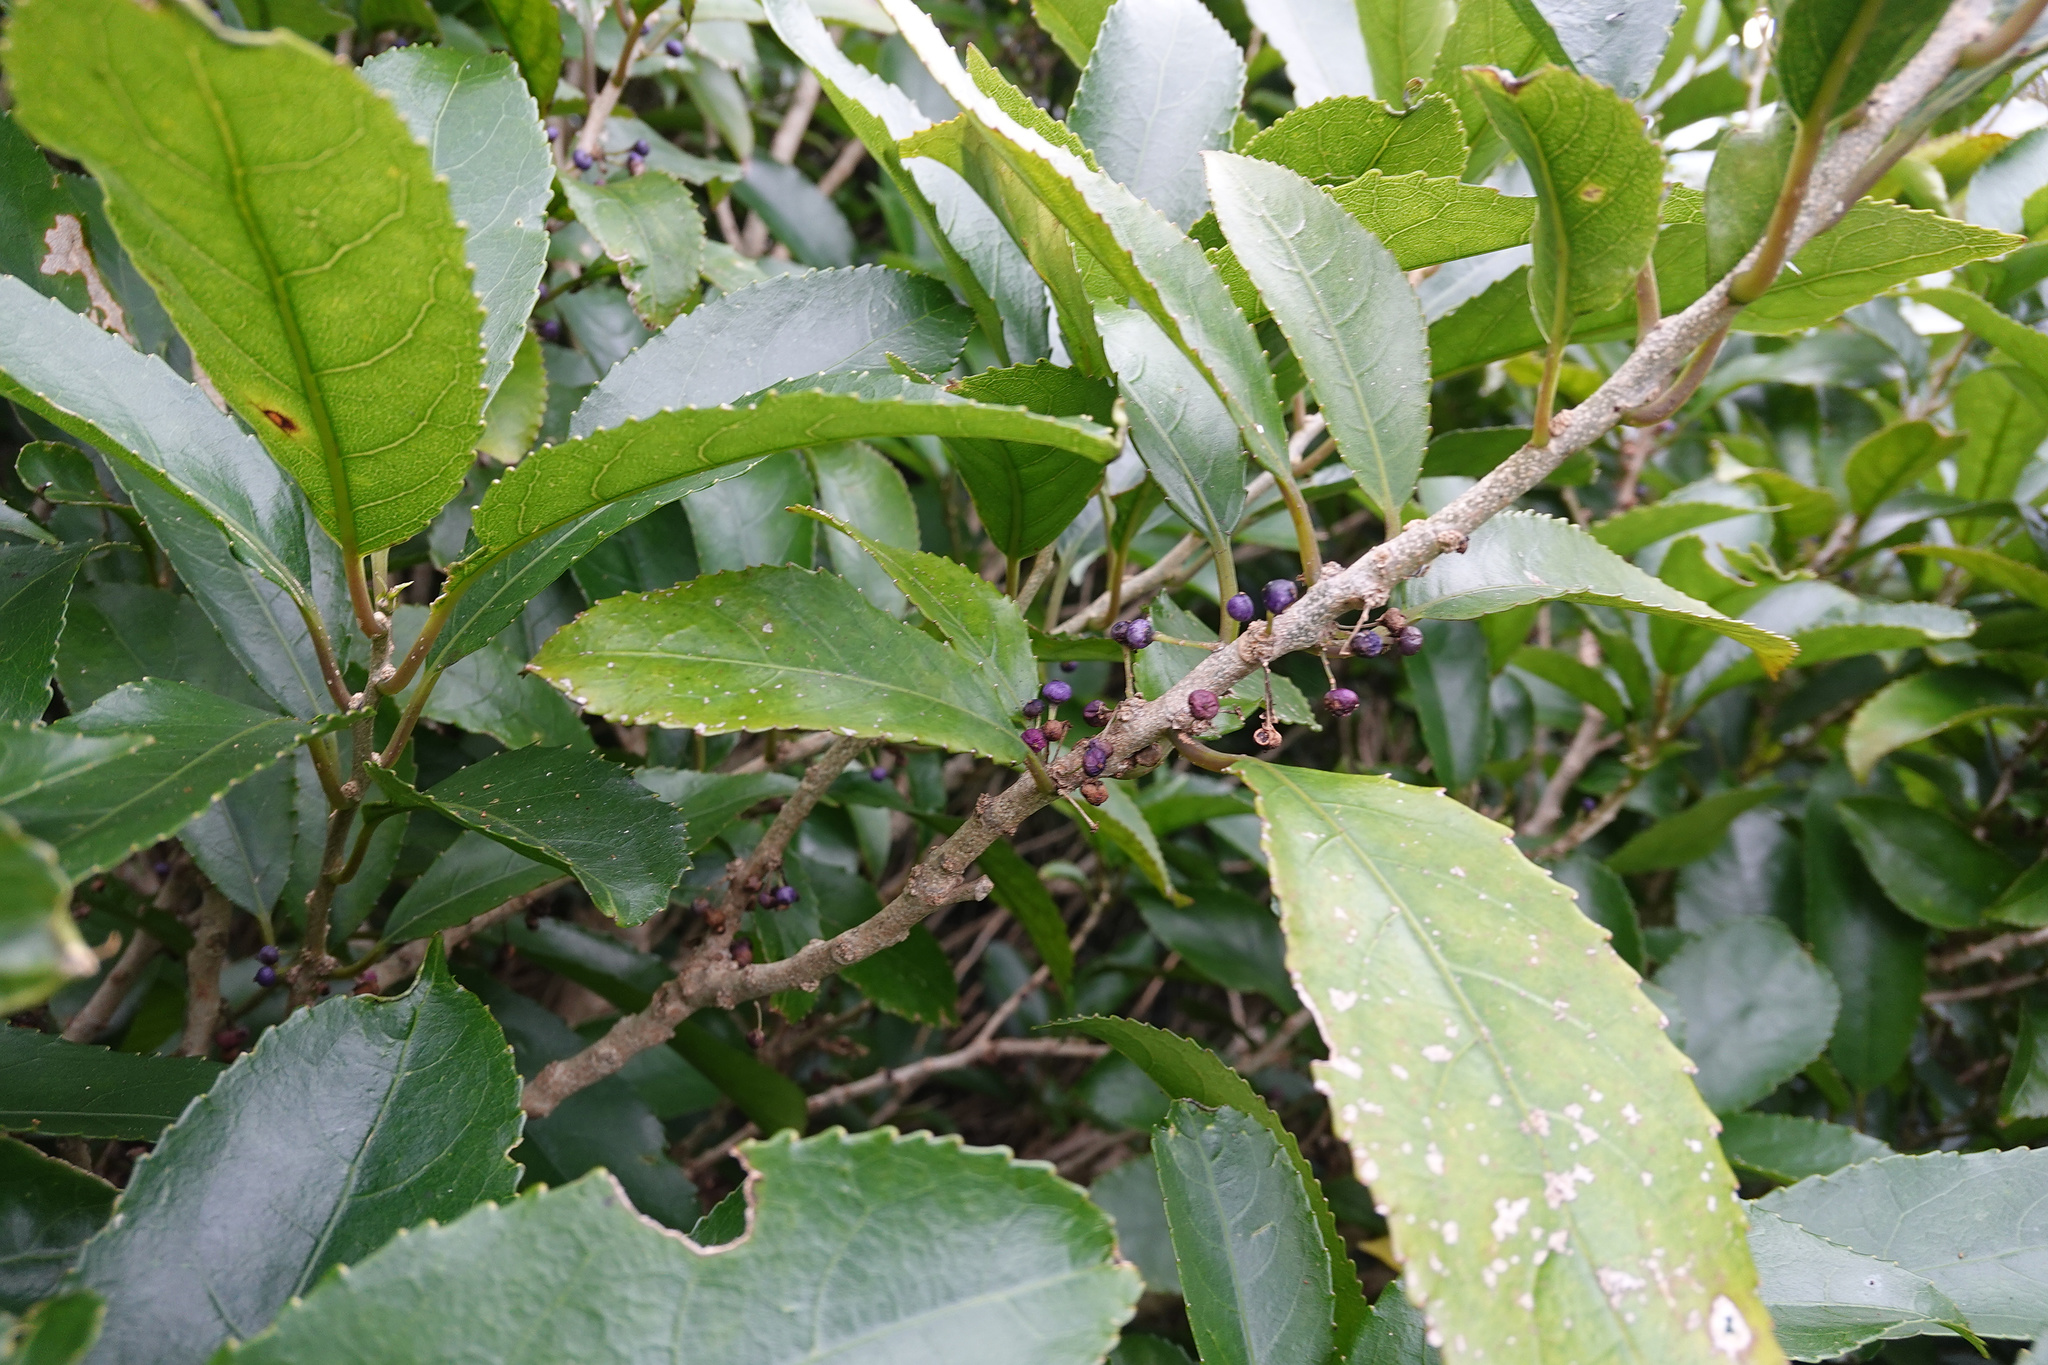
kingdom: Plantae
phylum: Tracheophyta
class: Magnoliopsida
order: Malpighiales
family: Violaceae
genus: Melicytus
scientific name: Melicytus ramiflorus
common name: Mahoe
